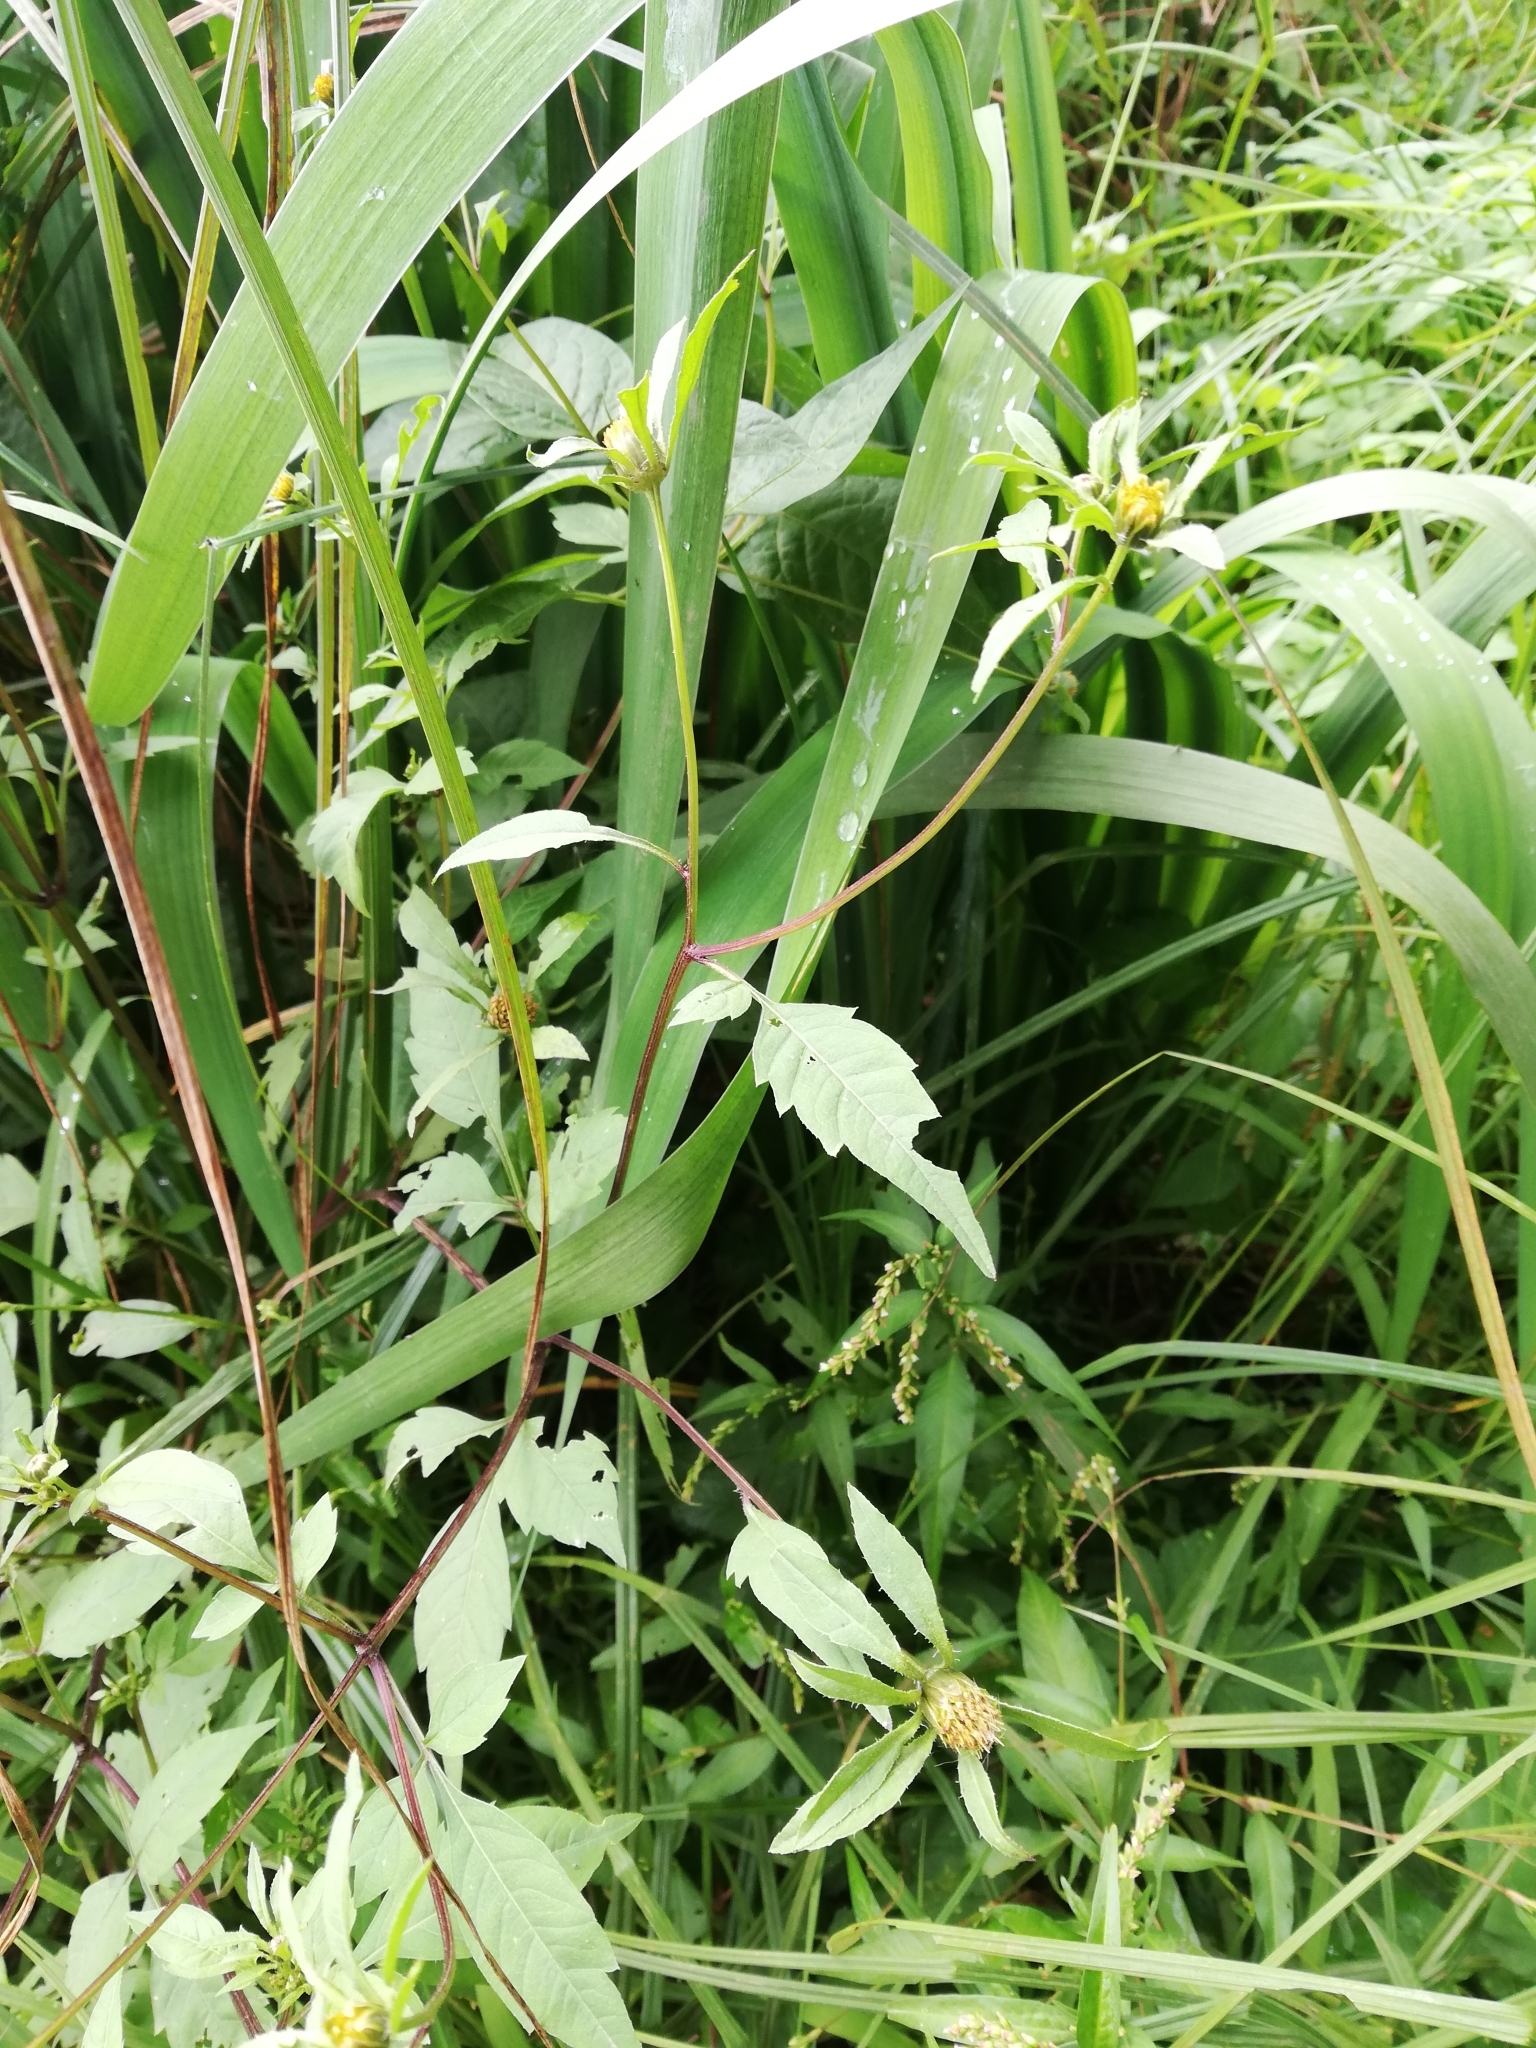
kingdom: Plantae
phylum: Tracheophyta
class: Magnoliopsida
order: Asterales
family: Asteraceae
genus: Bidens
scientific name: Bidens frondosa
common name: Beggarticks
